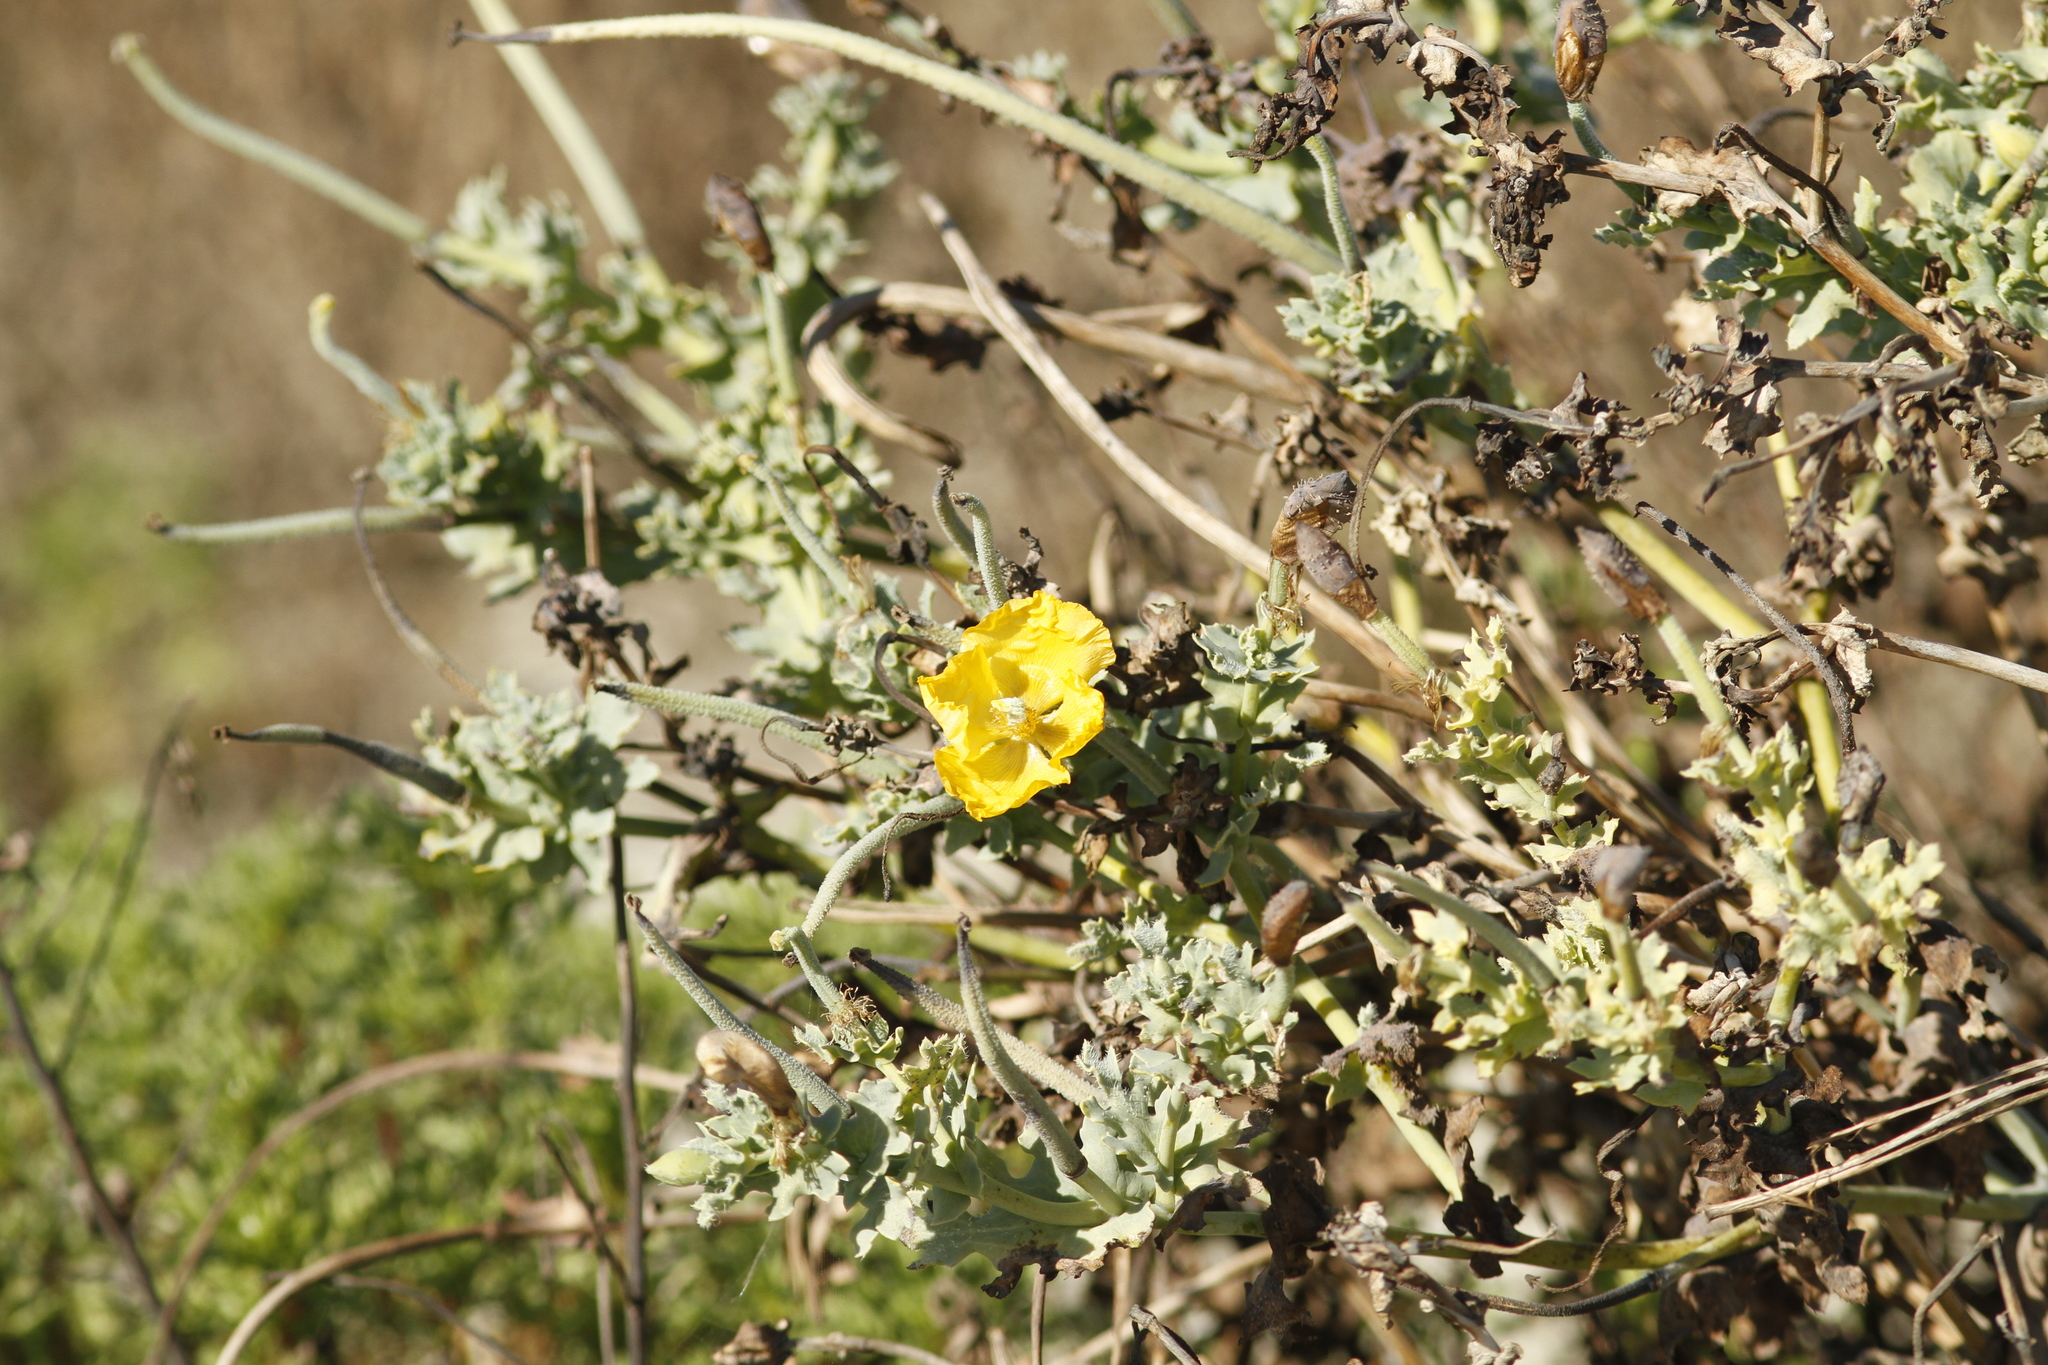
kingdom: Plantae
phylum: Tracheophyta
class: Magnoliopsida
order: Ranunculales
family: Papaveraceae
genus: Glaucium
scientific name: Glaucium flavum
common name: Yellow horned-poppy
